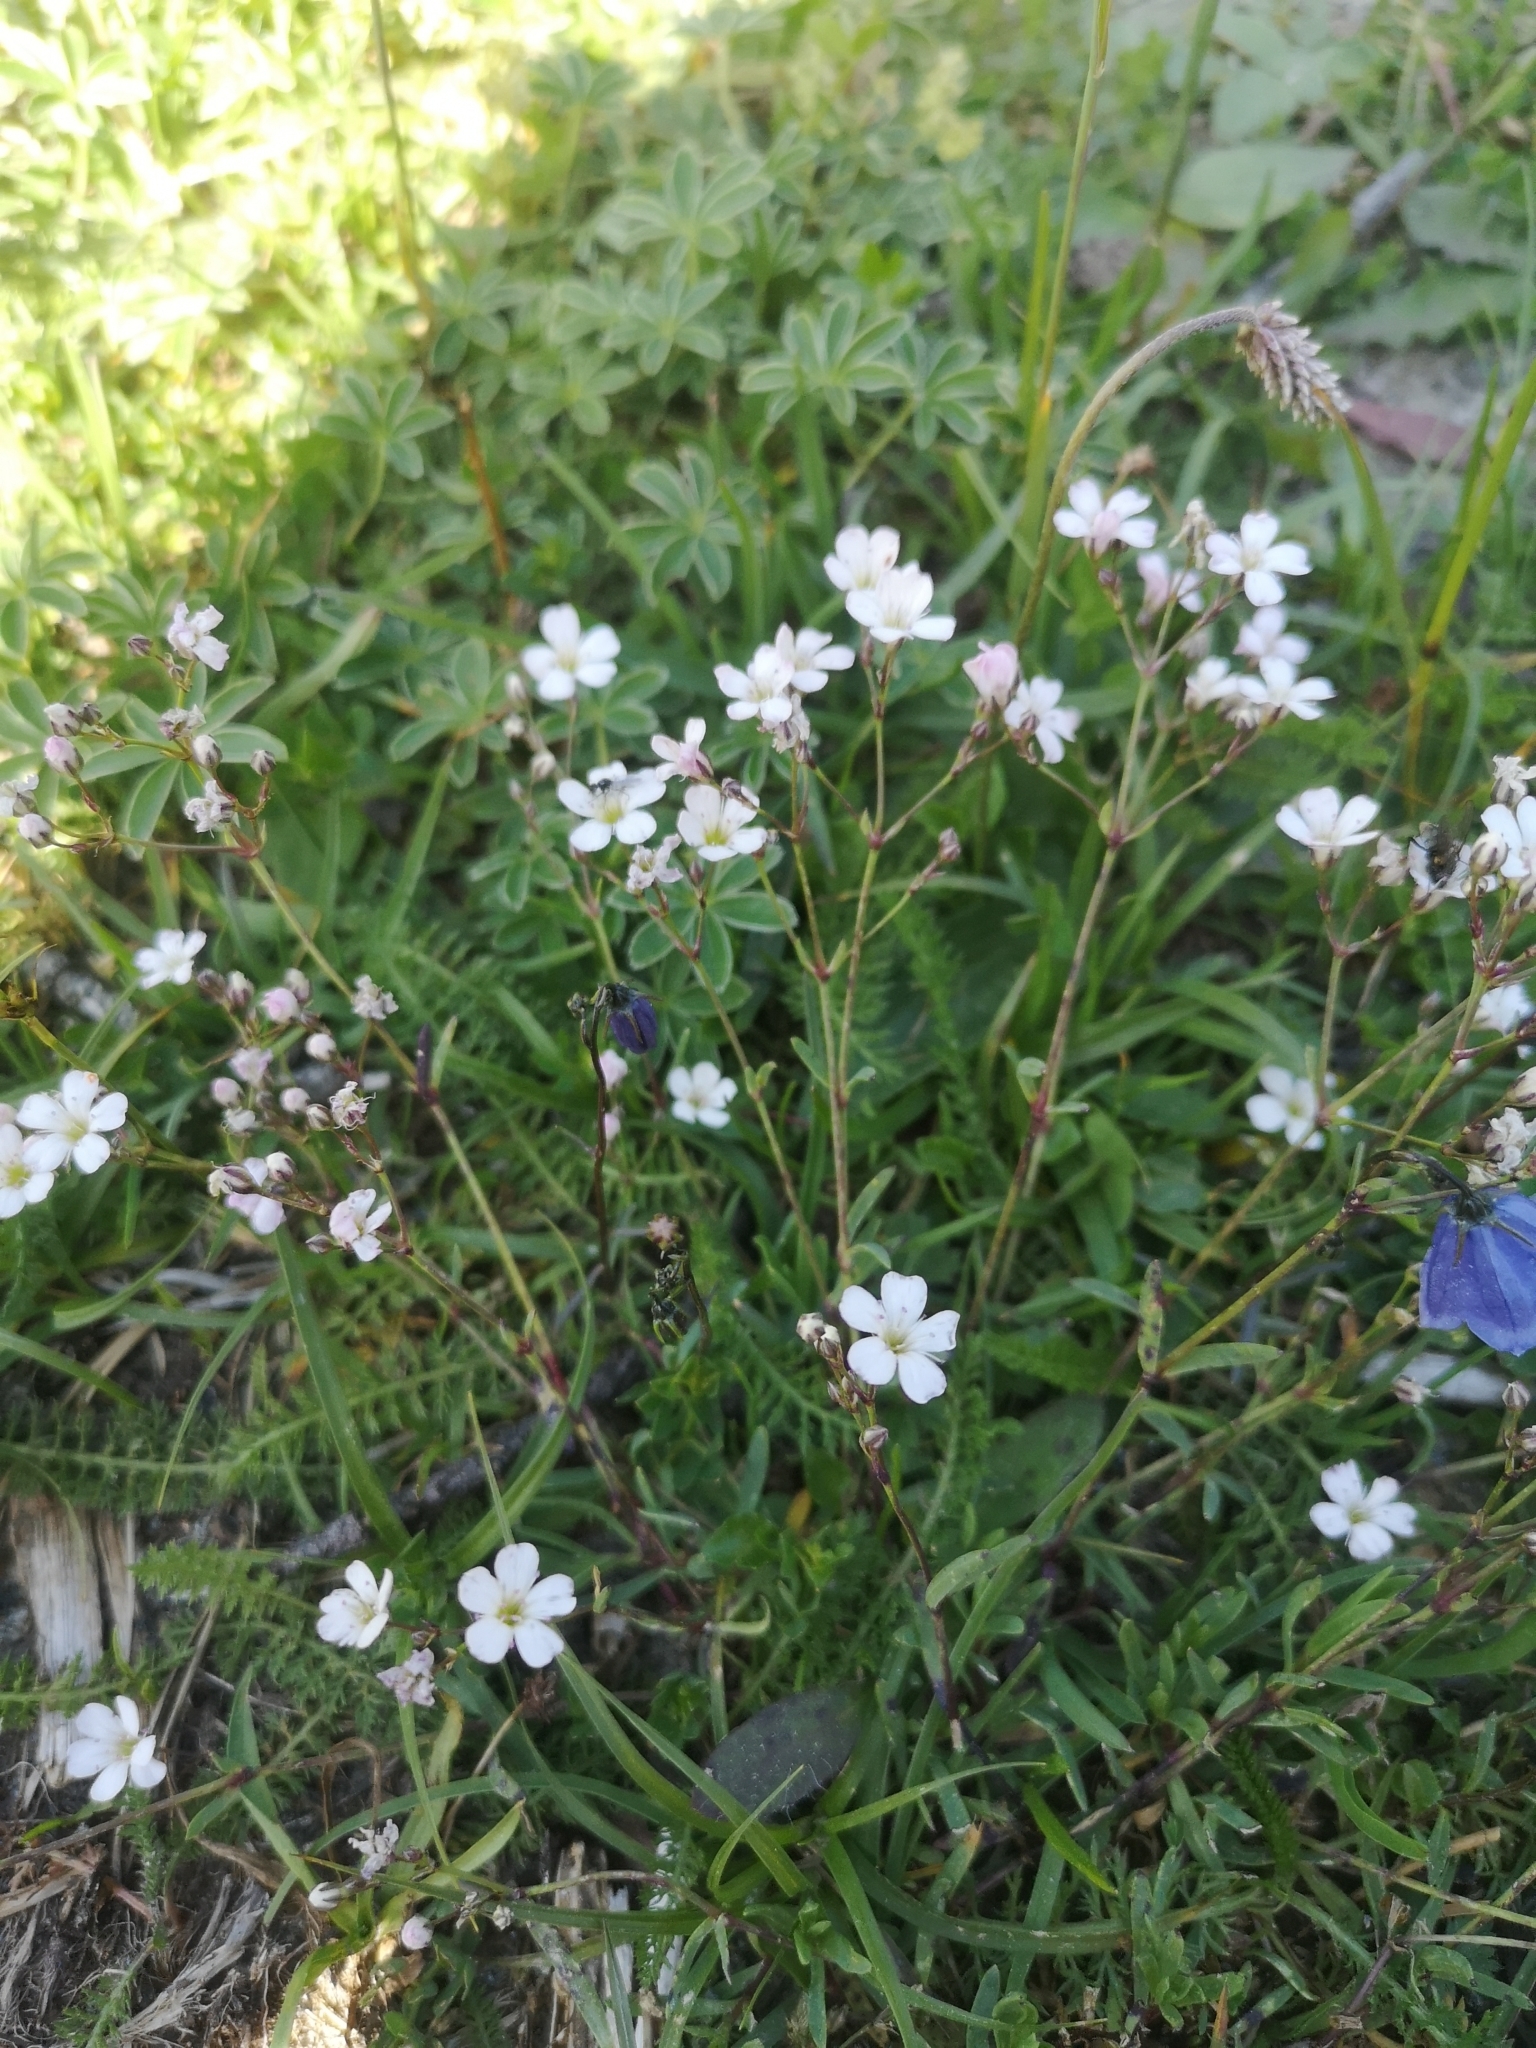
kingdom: Plantae
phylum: Tracheophyta
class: Magnoliopsida
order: Caryophyllales
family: Caryophyllaceae
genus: Gypsophila
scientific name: Gypsophila repens
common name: Creeping baby's-breath
